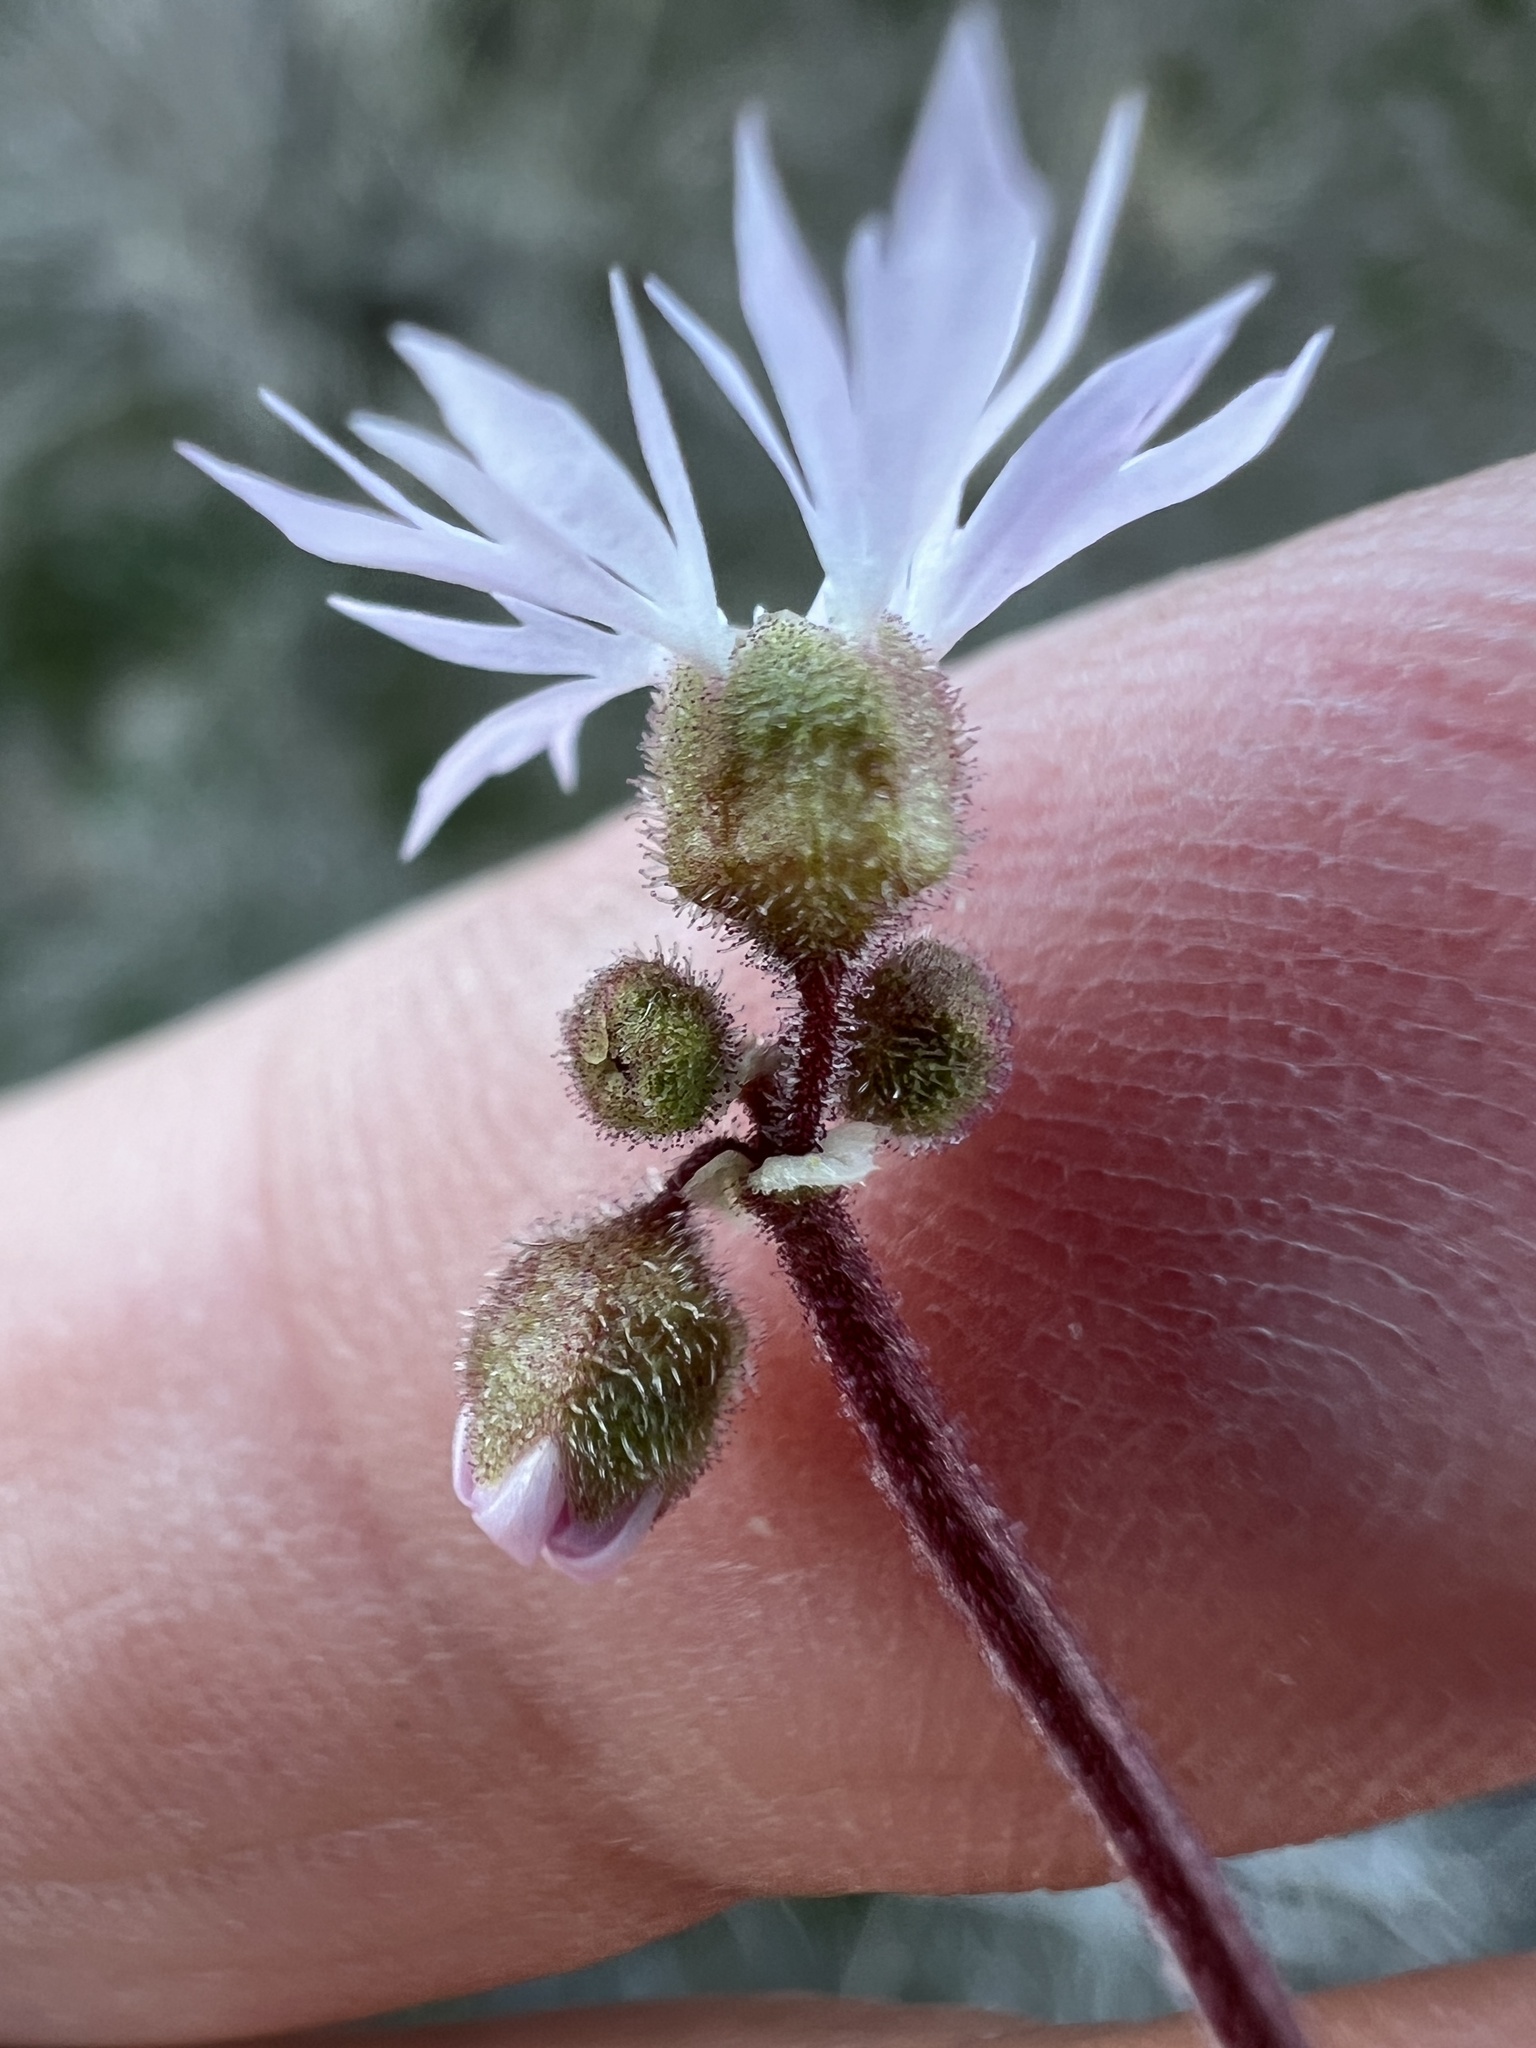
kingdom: Plantae
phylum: Tracheophyta
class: Magnoliopsida
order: Saxifragales
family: Saxifragaceae
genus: Lithophragma
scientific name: Lithophragma glabrum
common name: Bulbous prairie-star
